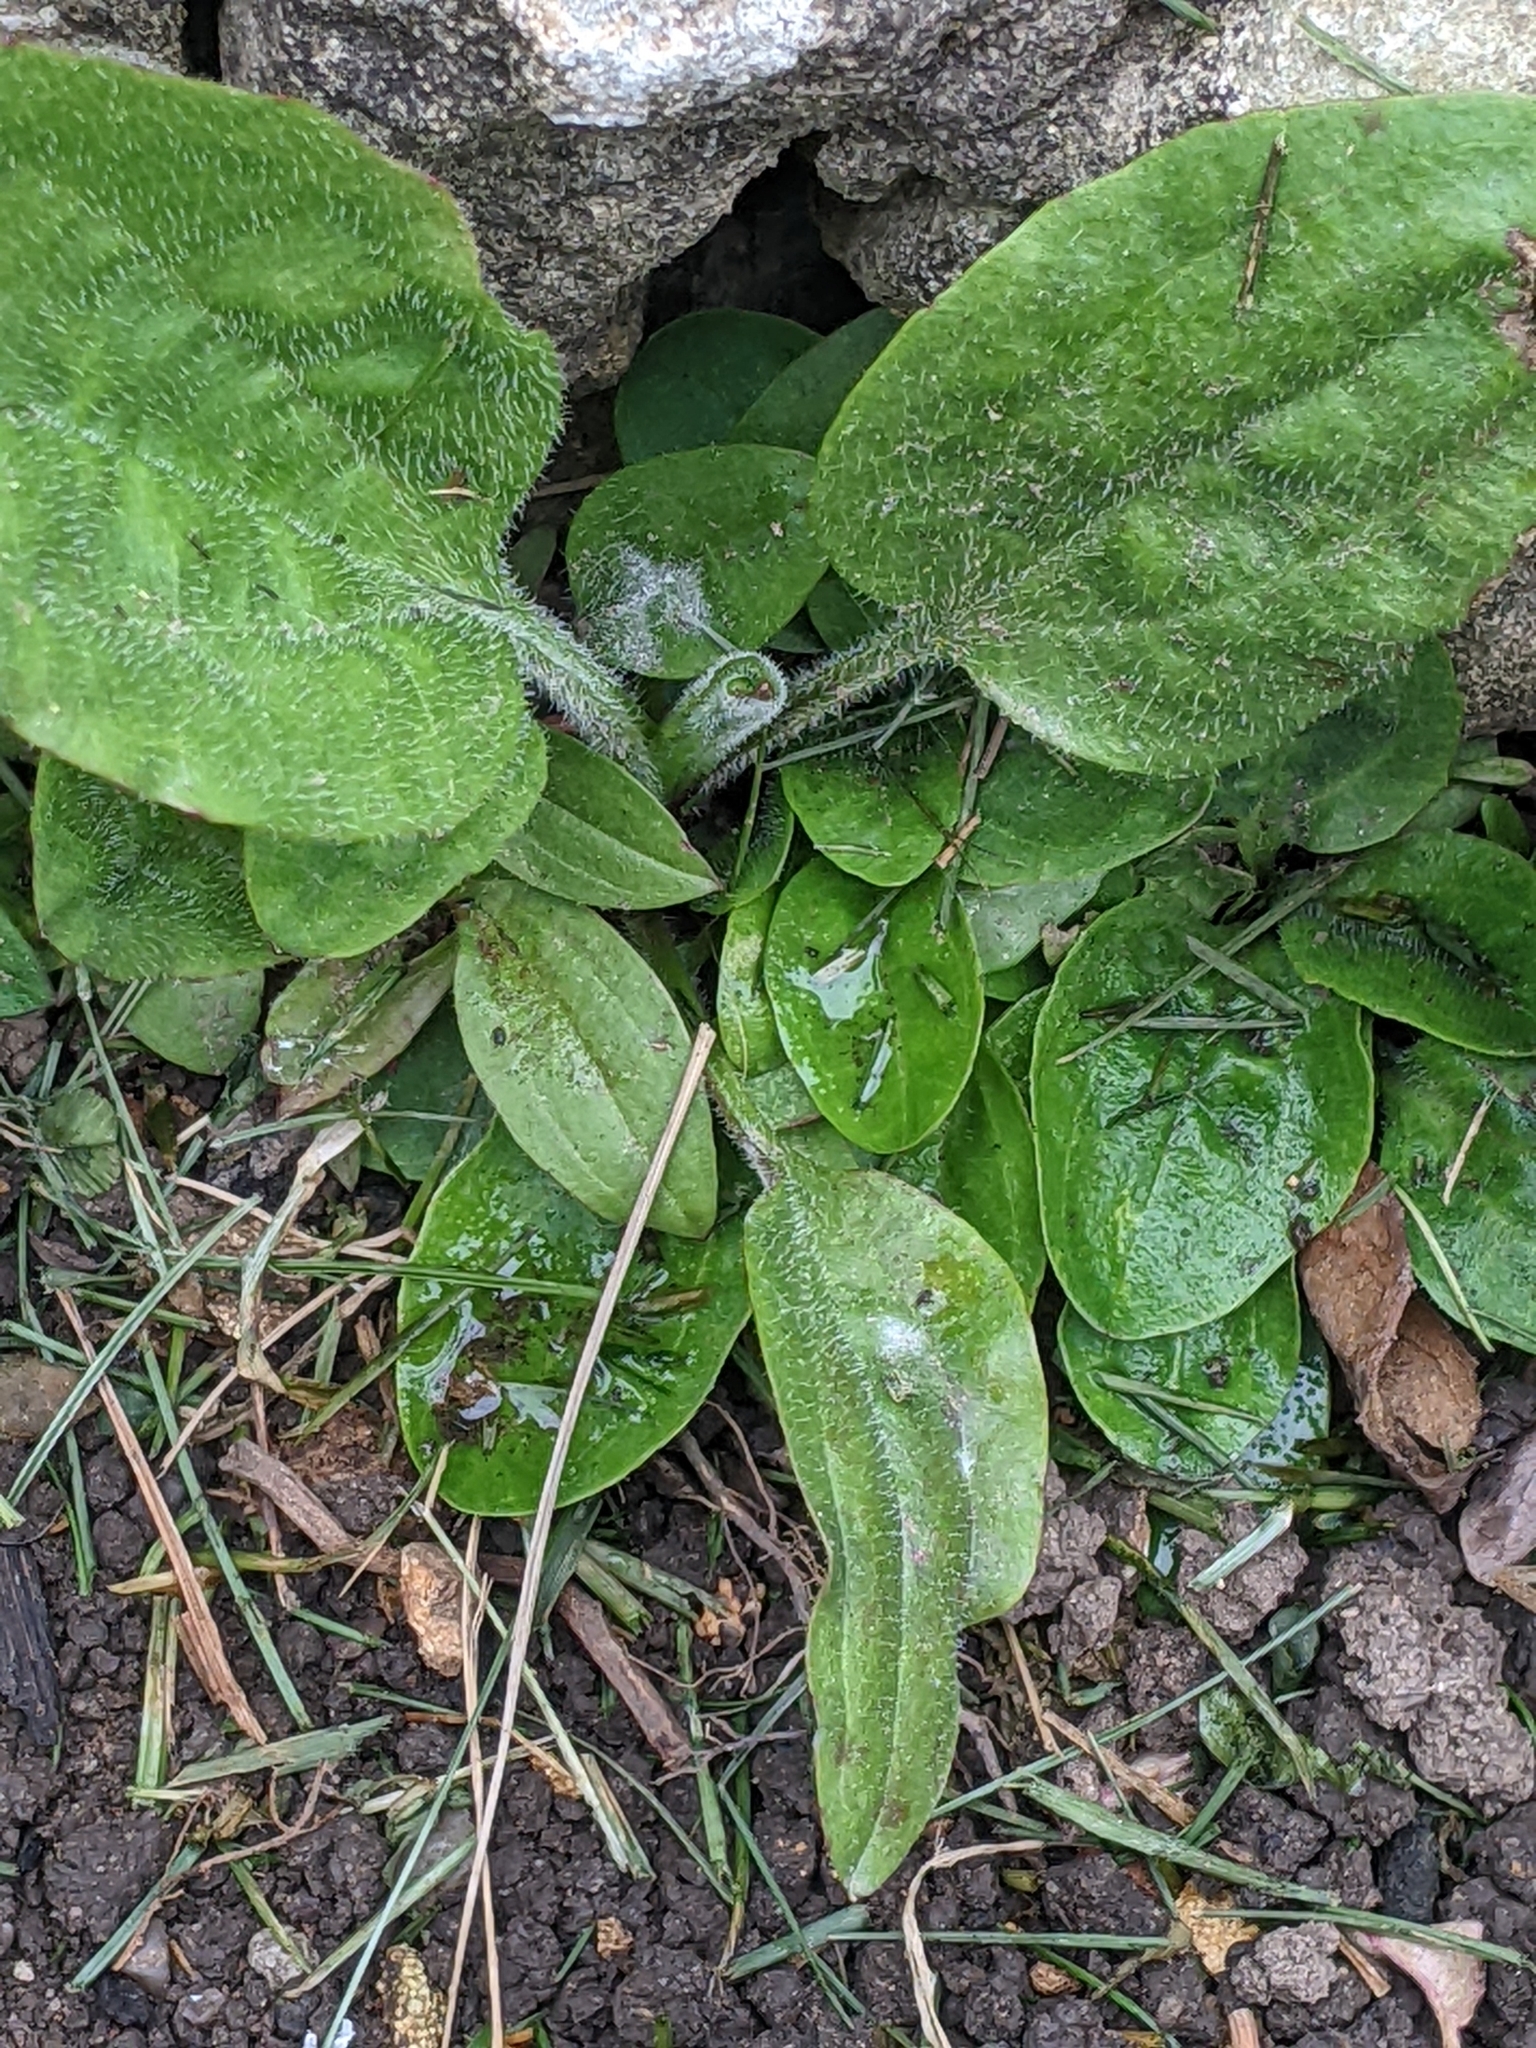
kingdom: Plantae
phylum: Tracheophyta
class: Magnoliopsida
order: Lamiales
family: Plantaginaceae
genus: Plantago
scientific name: Plantago major
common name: Common plantain
